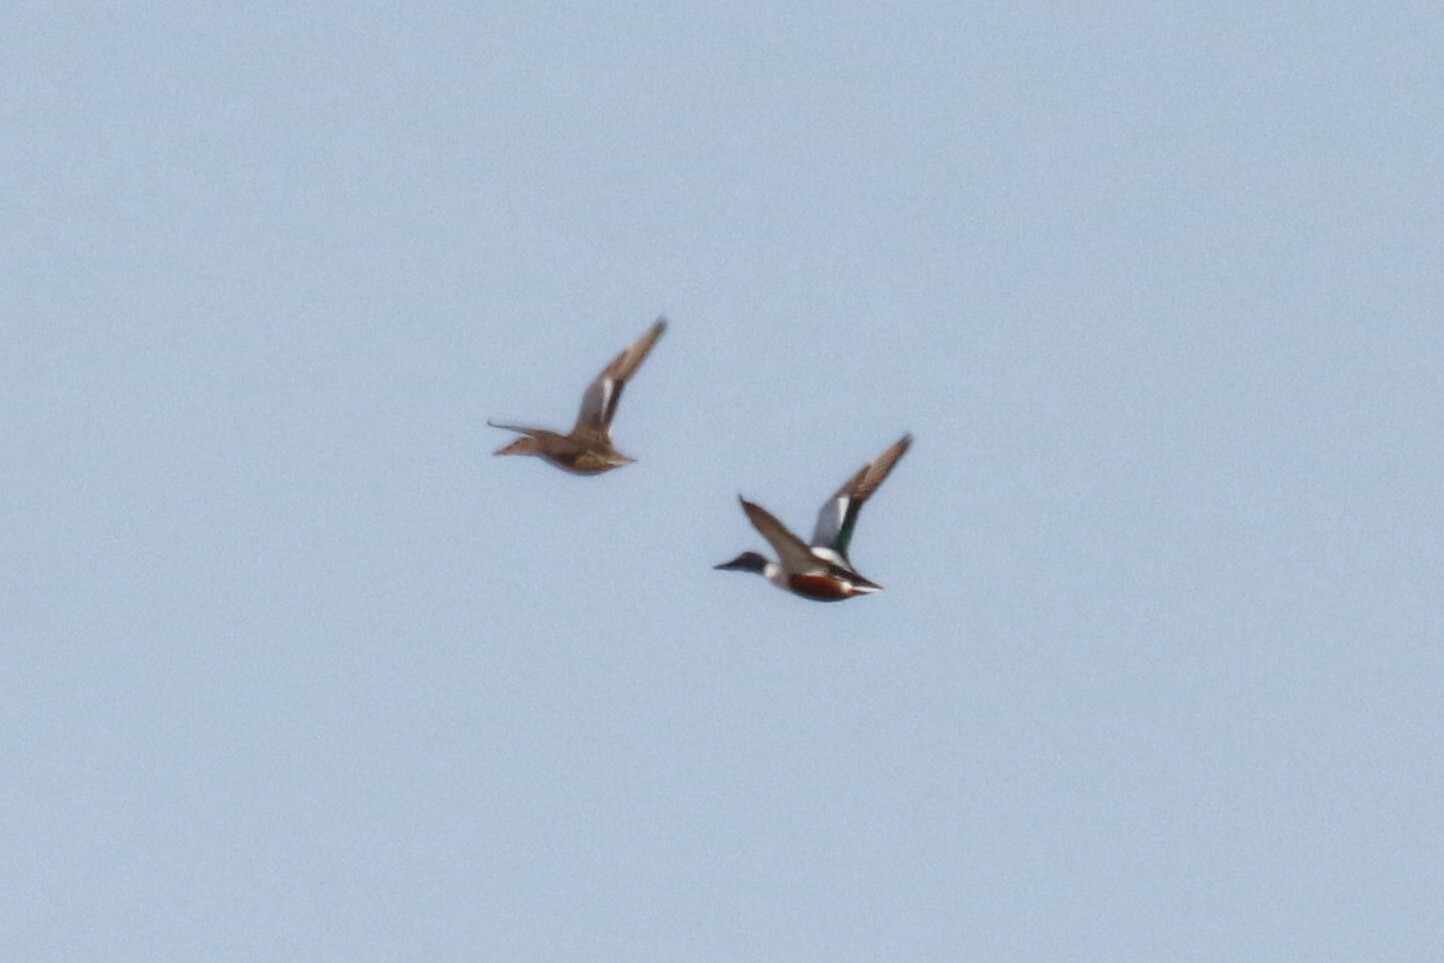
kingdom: Animalia
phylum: Chordata
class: Aves
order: Anseriformes
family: Anatidae
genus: Spatula
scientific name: Spatula clypeata
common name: Northern shoveler
